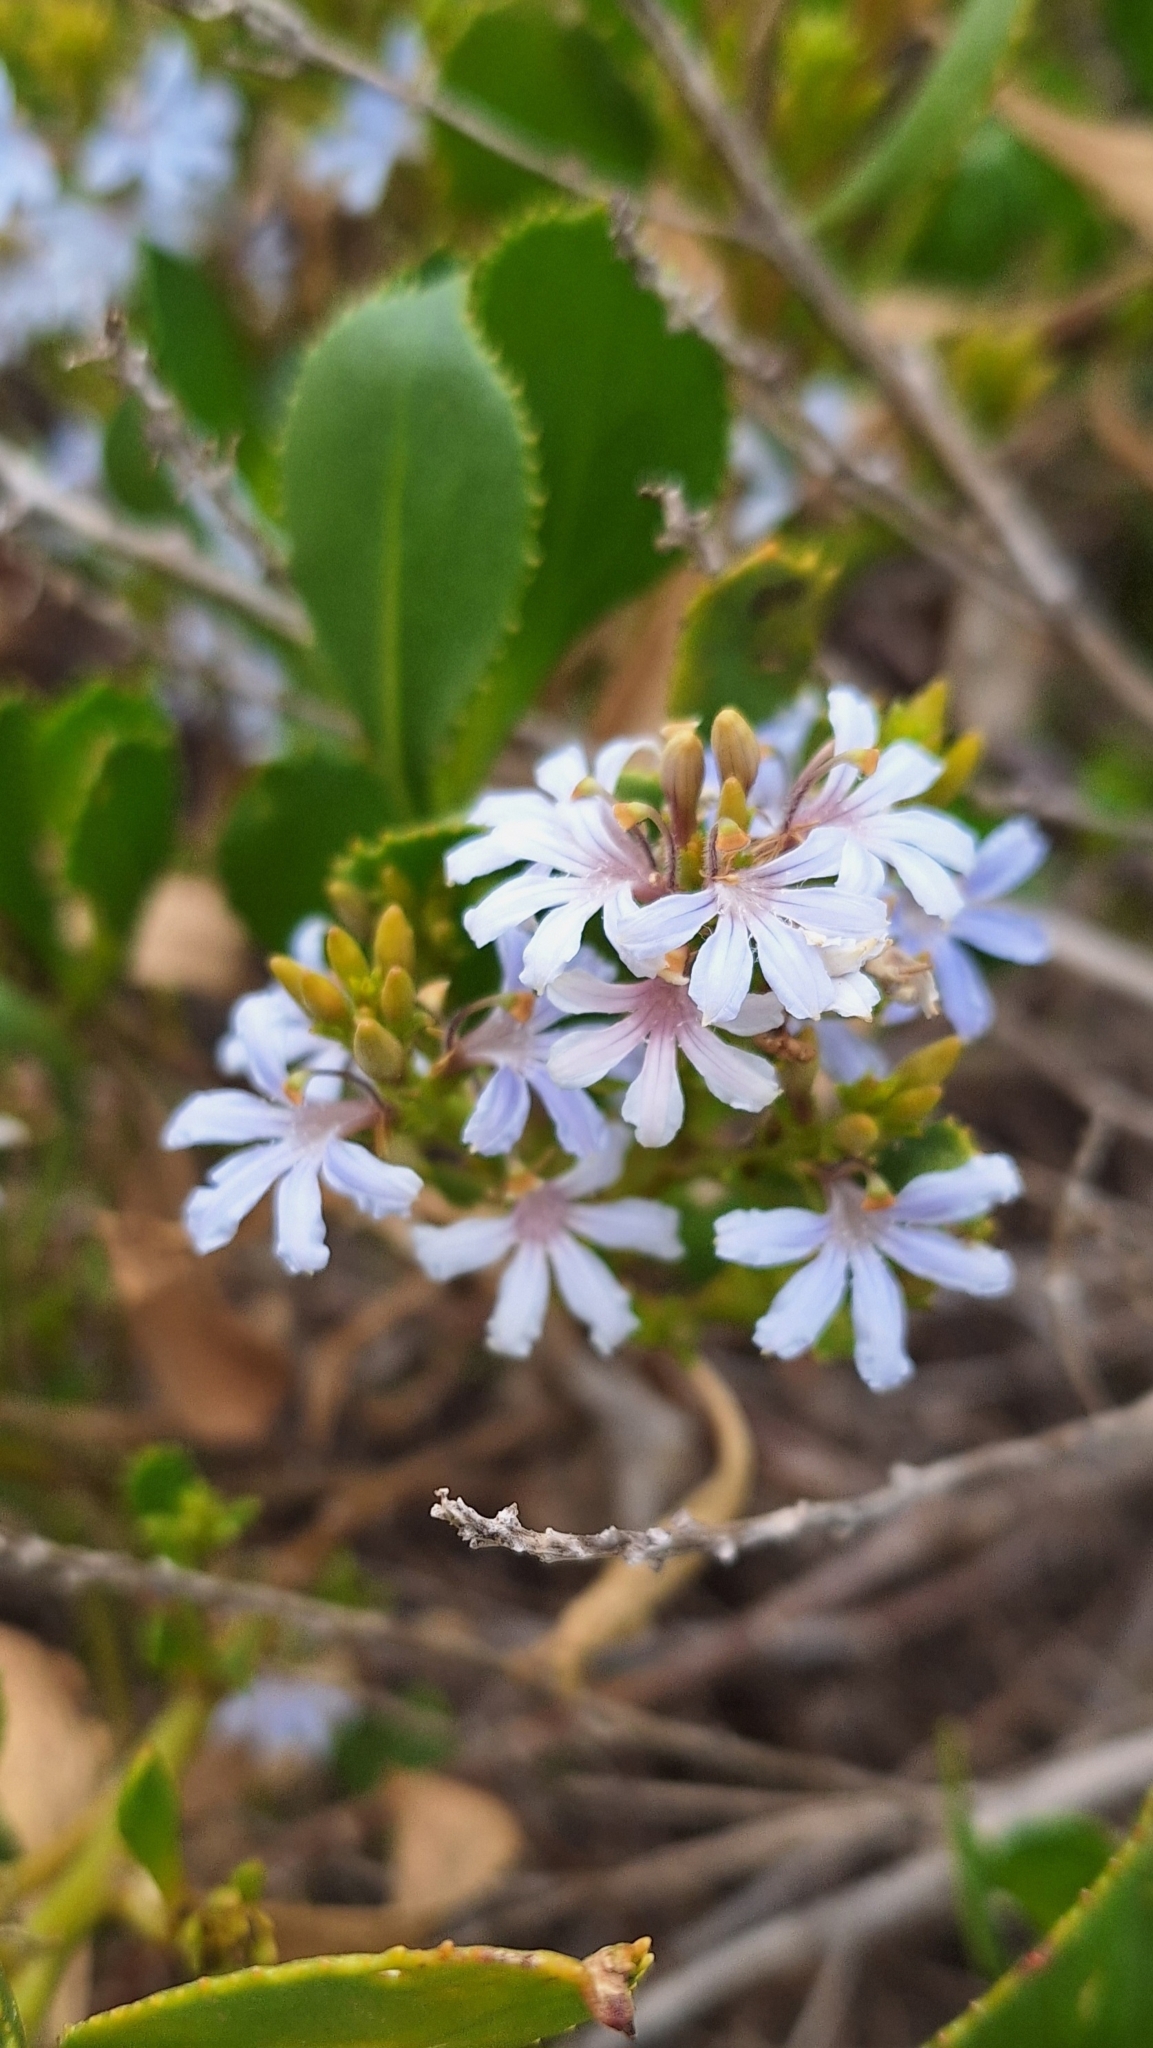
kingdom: Plantae
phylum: Tracheophyta
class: Magnoliopsida
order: Asterales
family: Goodeniaceae
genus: Scaevola
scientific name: Scaevola crassifolia
